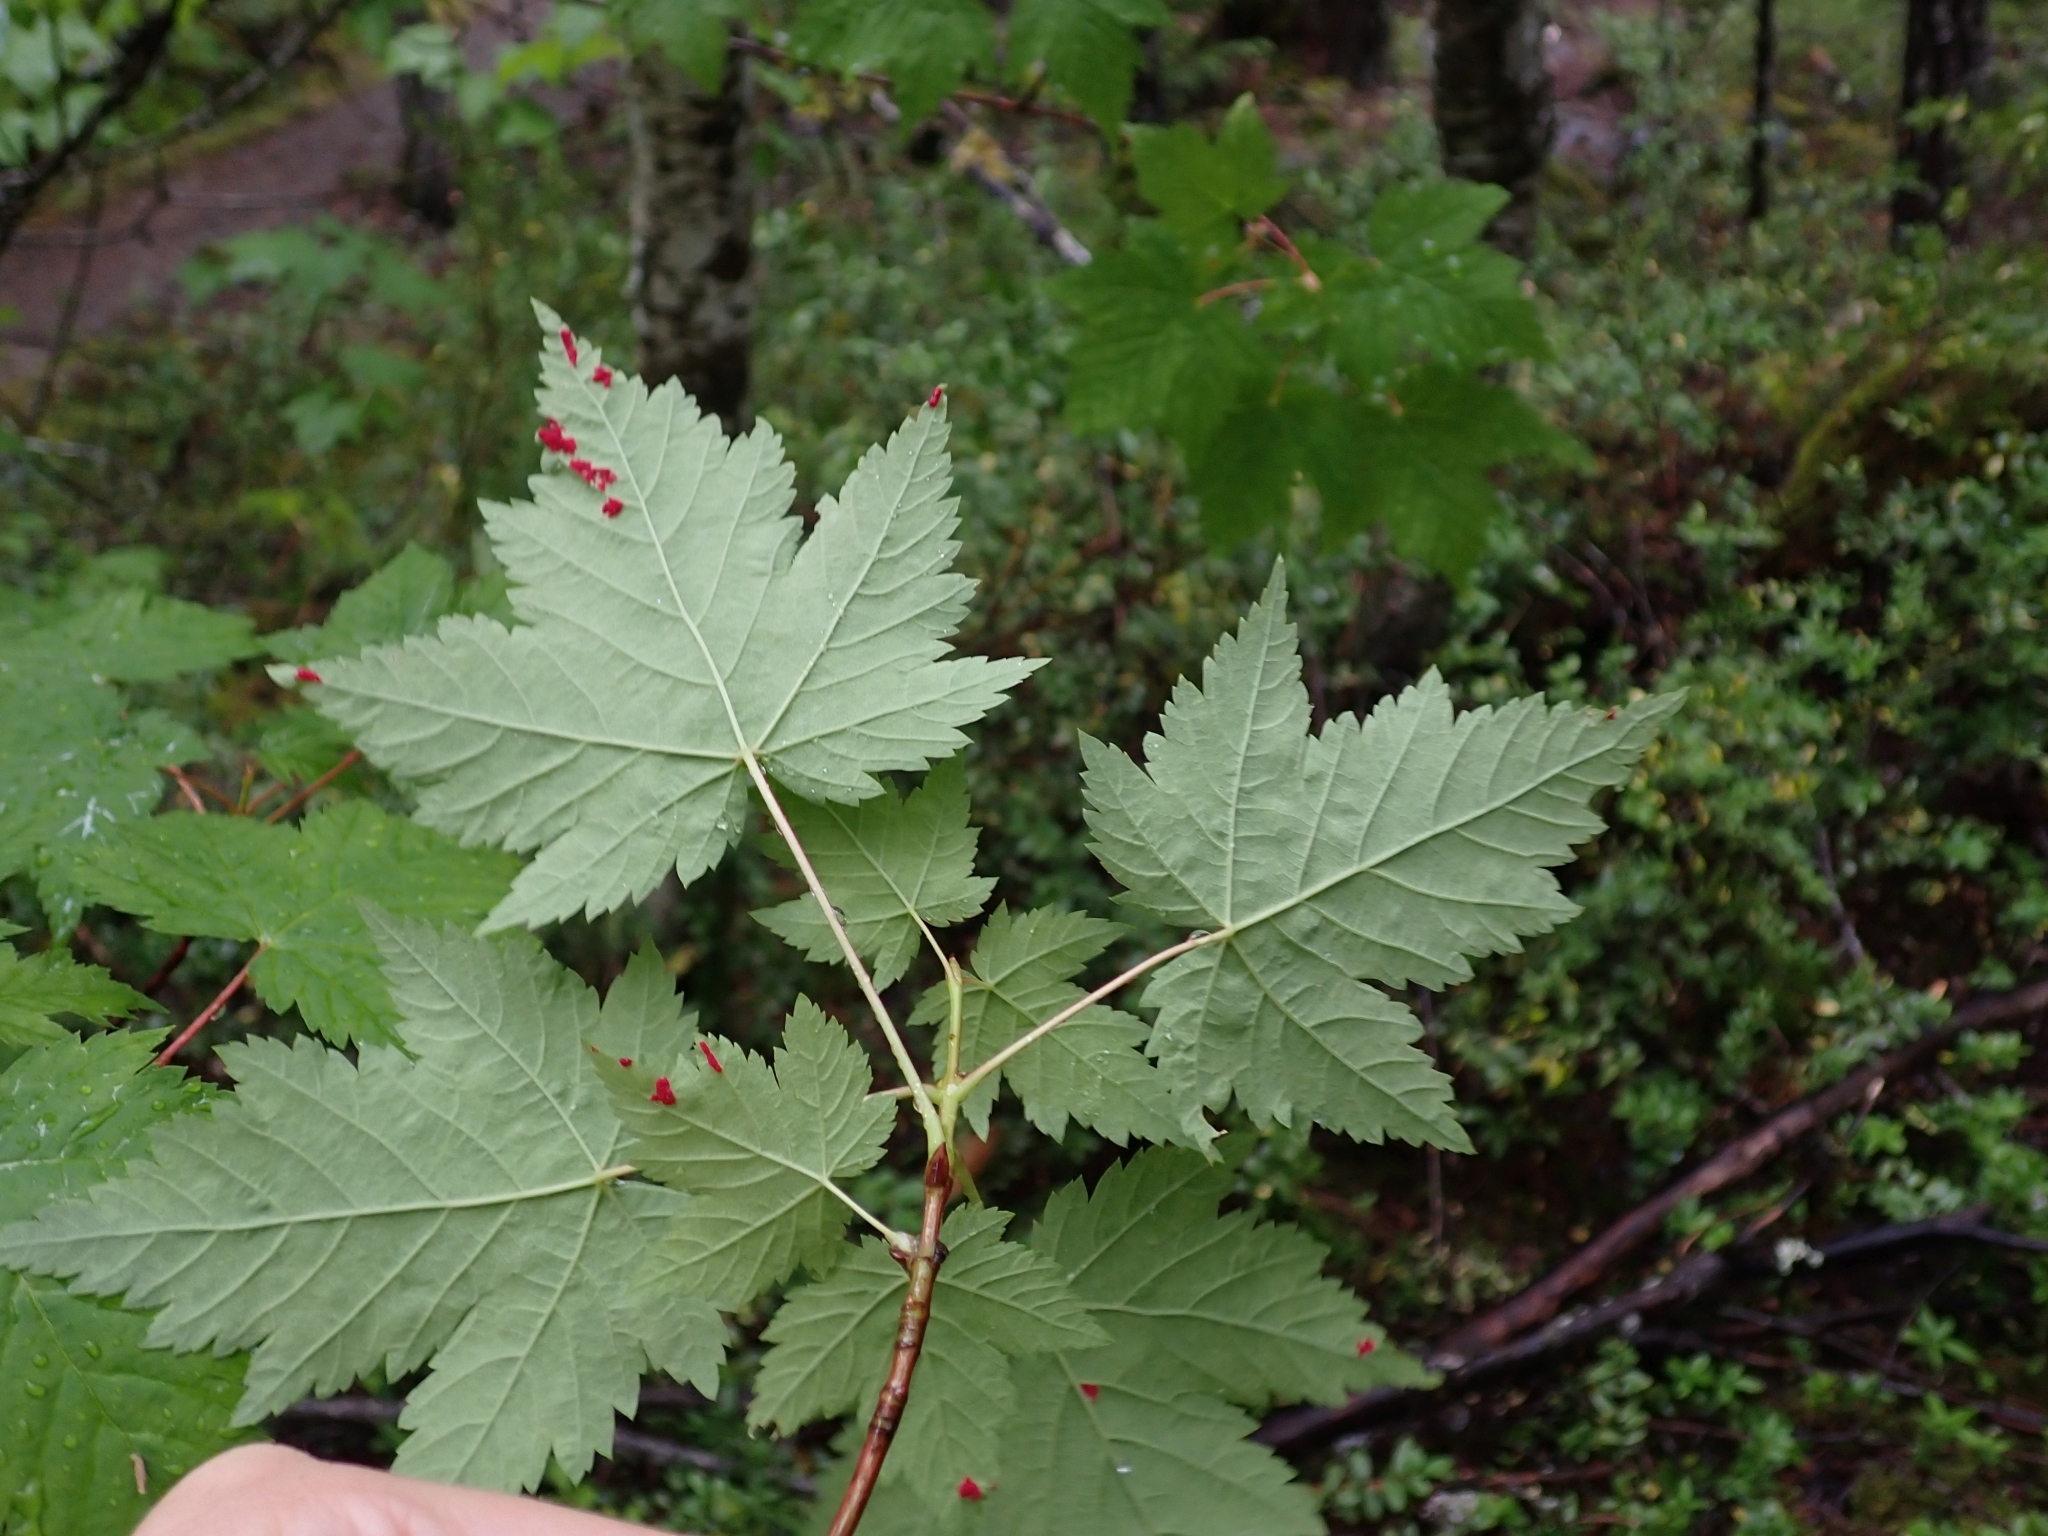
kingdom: Plantae
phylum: Tracheophyta
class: Magnoliopsida
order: Sapindales
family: Sapindaceae
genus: Acer
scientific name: Acer glabrum
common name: Rocky mountain maple
